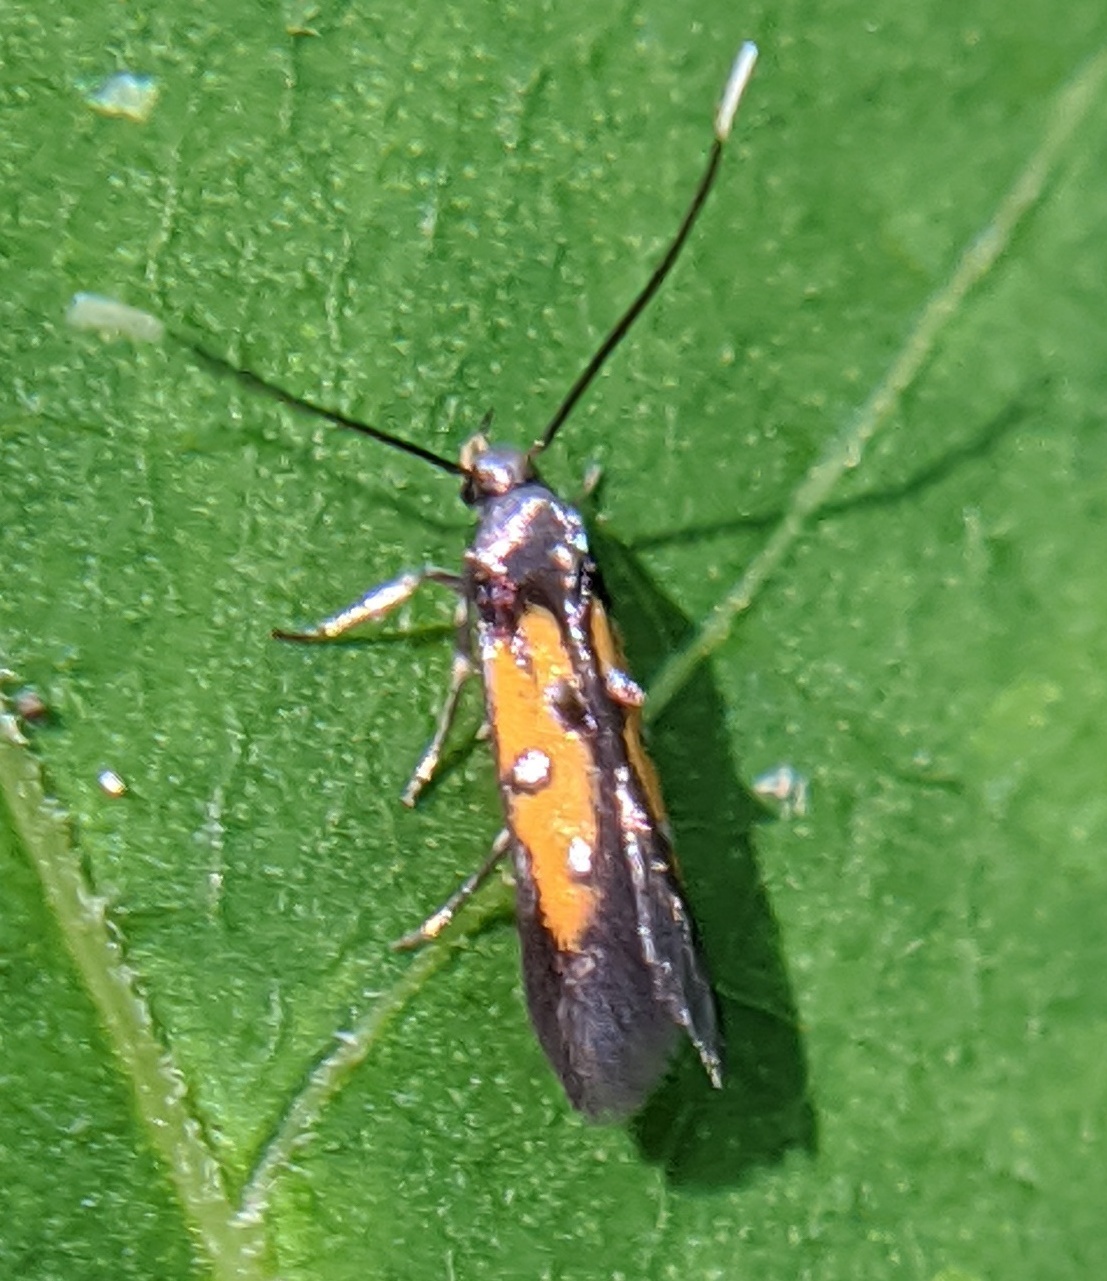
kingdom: Animalia
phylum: Arthropoda
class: Insecta
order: Lepidoptera
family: Elachistidae
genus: Chrysoclista
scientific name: Chrysoclista linneela
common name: Lime cosmet
